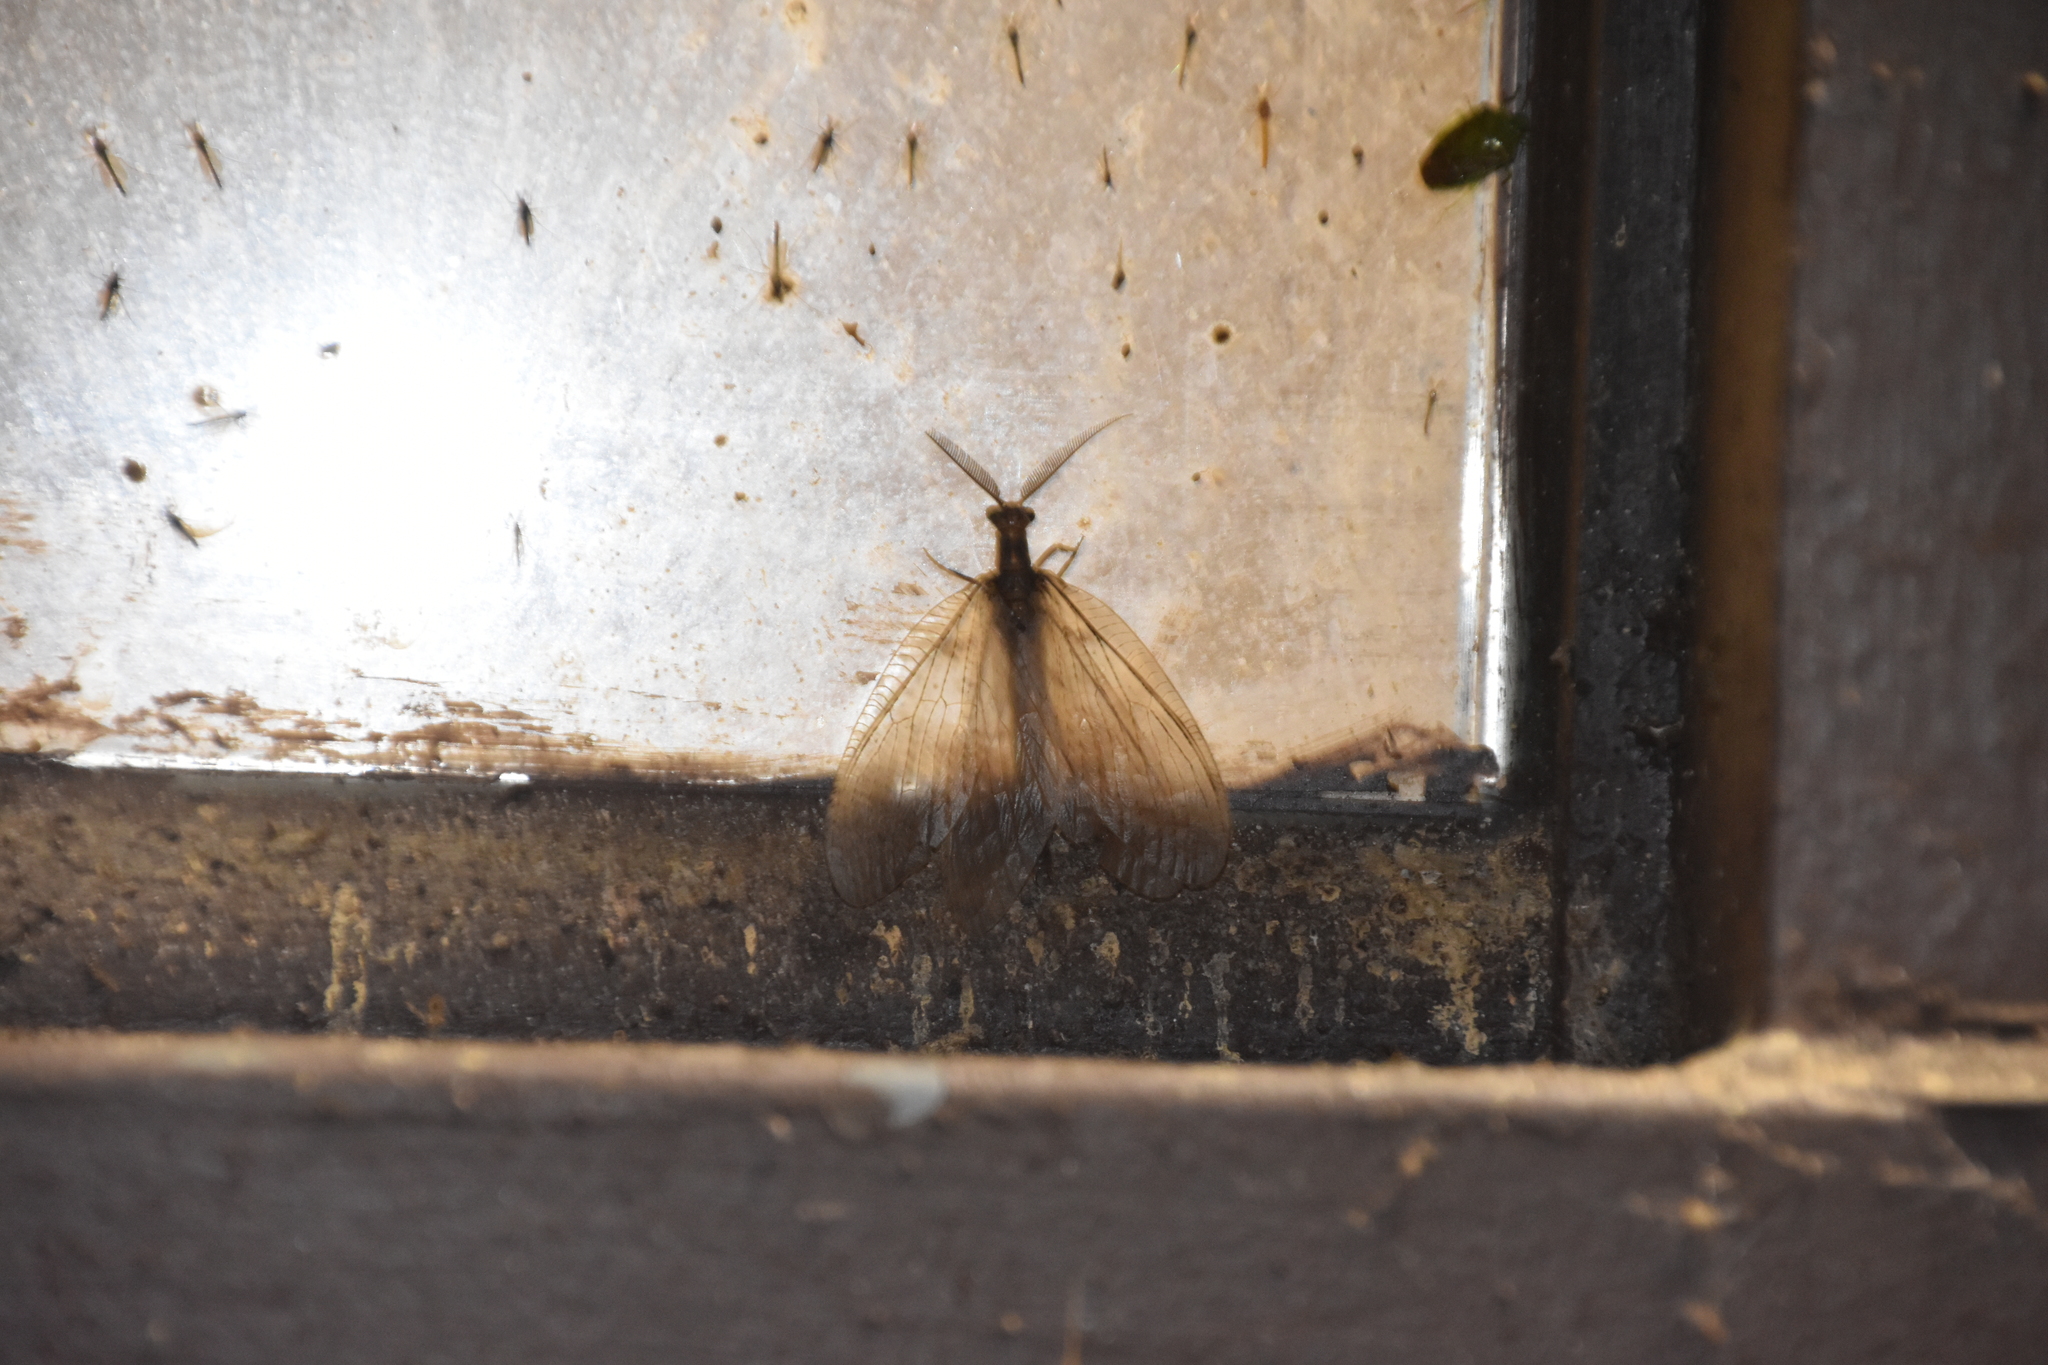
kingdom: Animalia
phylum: Arthropoda
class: Insecta
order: Megaloptera
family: Corydalidae
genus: Chauliodes
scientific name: Chauliodes pectinicornis
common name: Summer fishfly
